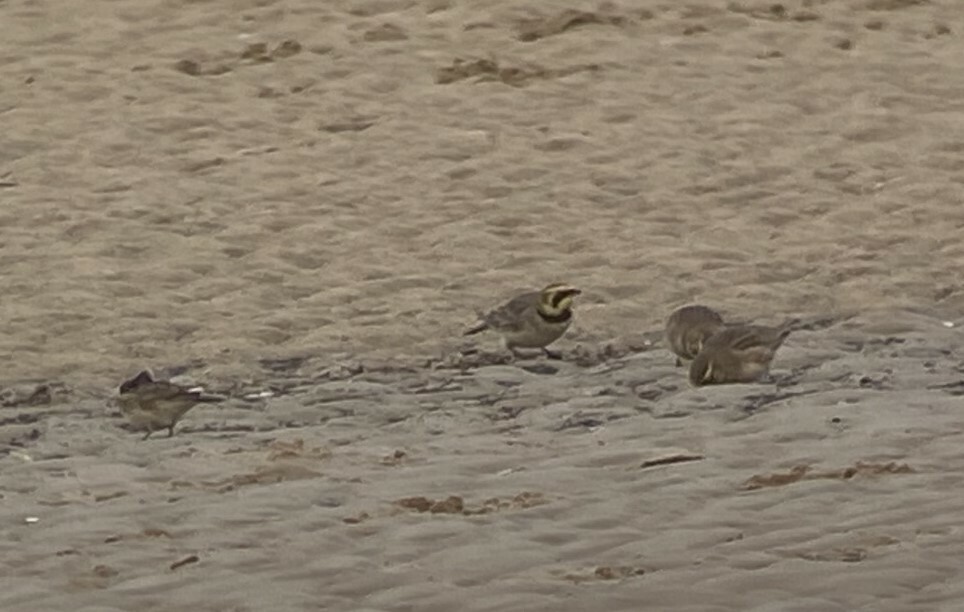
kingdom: Animalia
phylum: Chordata
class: Aves
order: Passeriformes
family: Alaudidae
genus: Eremophila
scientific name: Eremophila alpestris
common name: Horned lark
